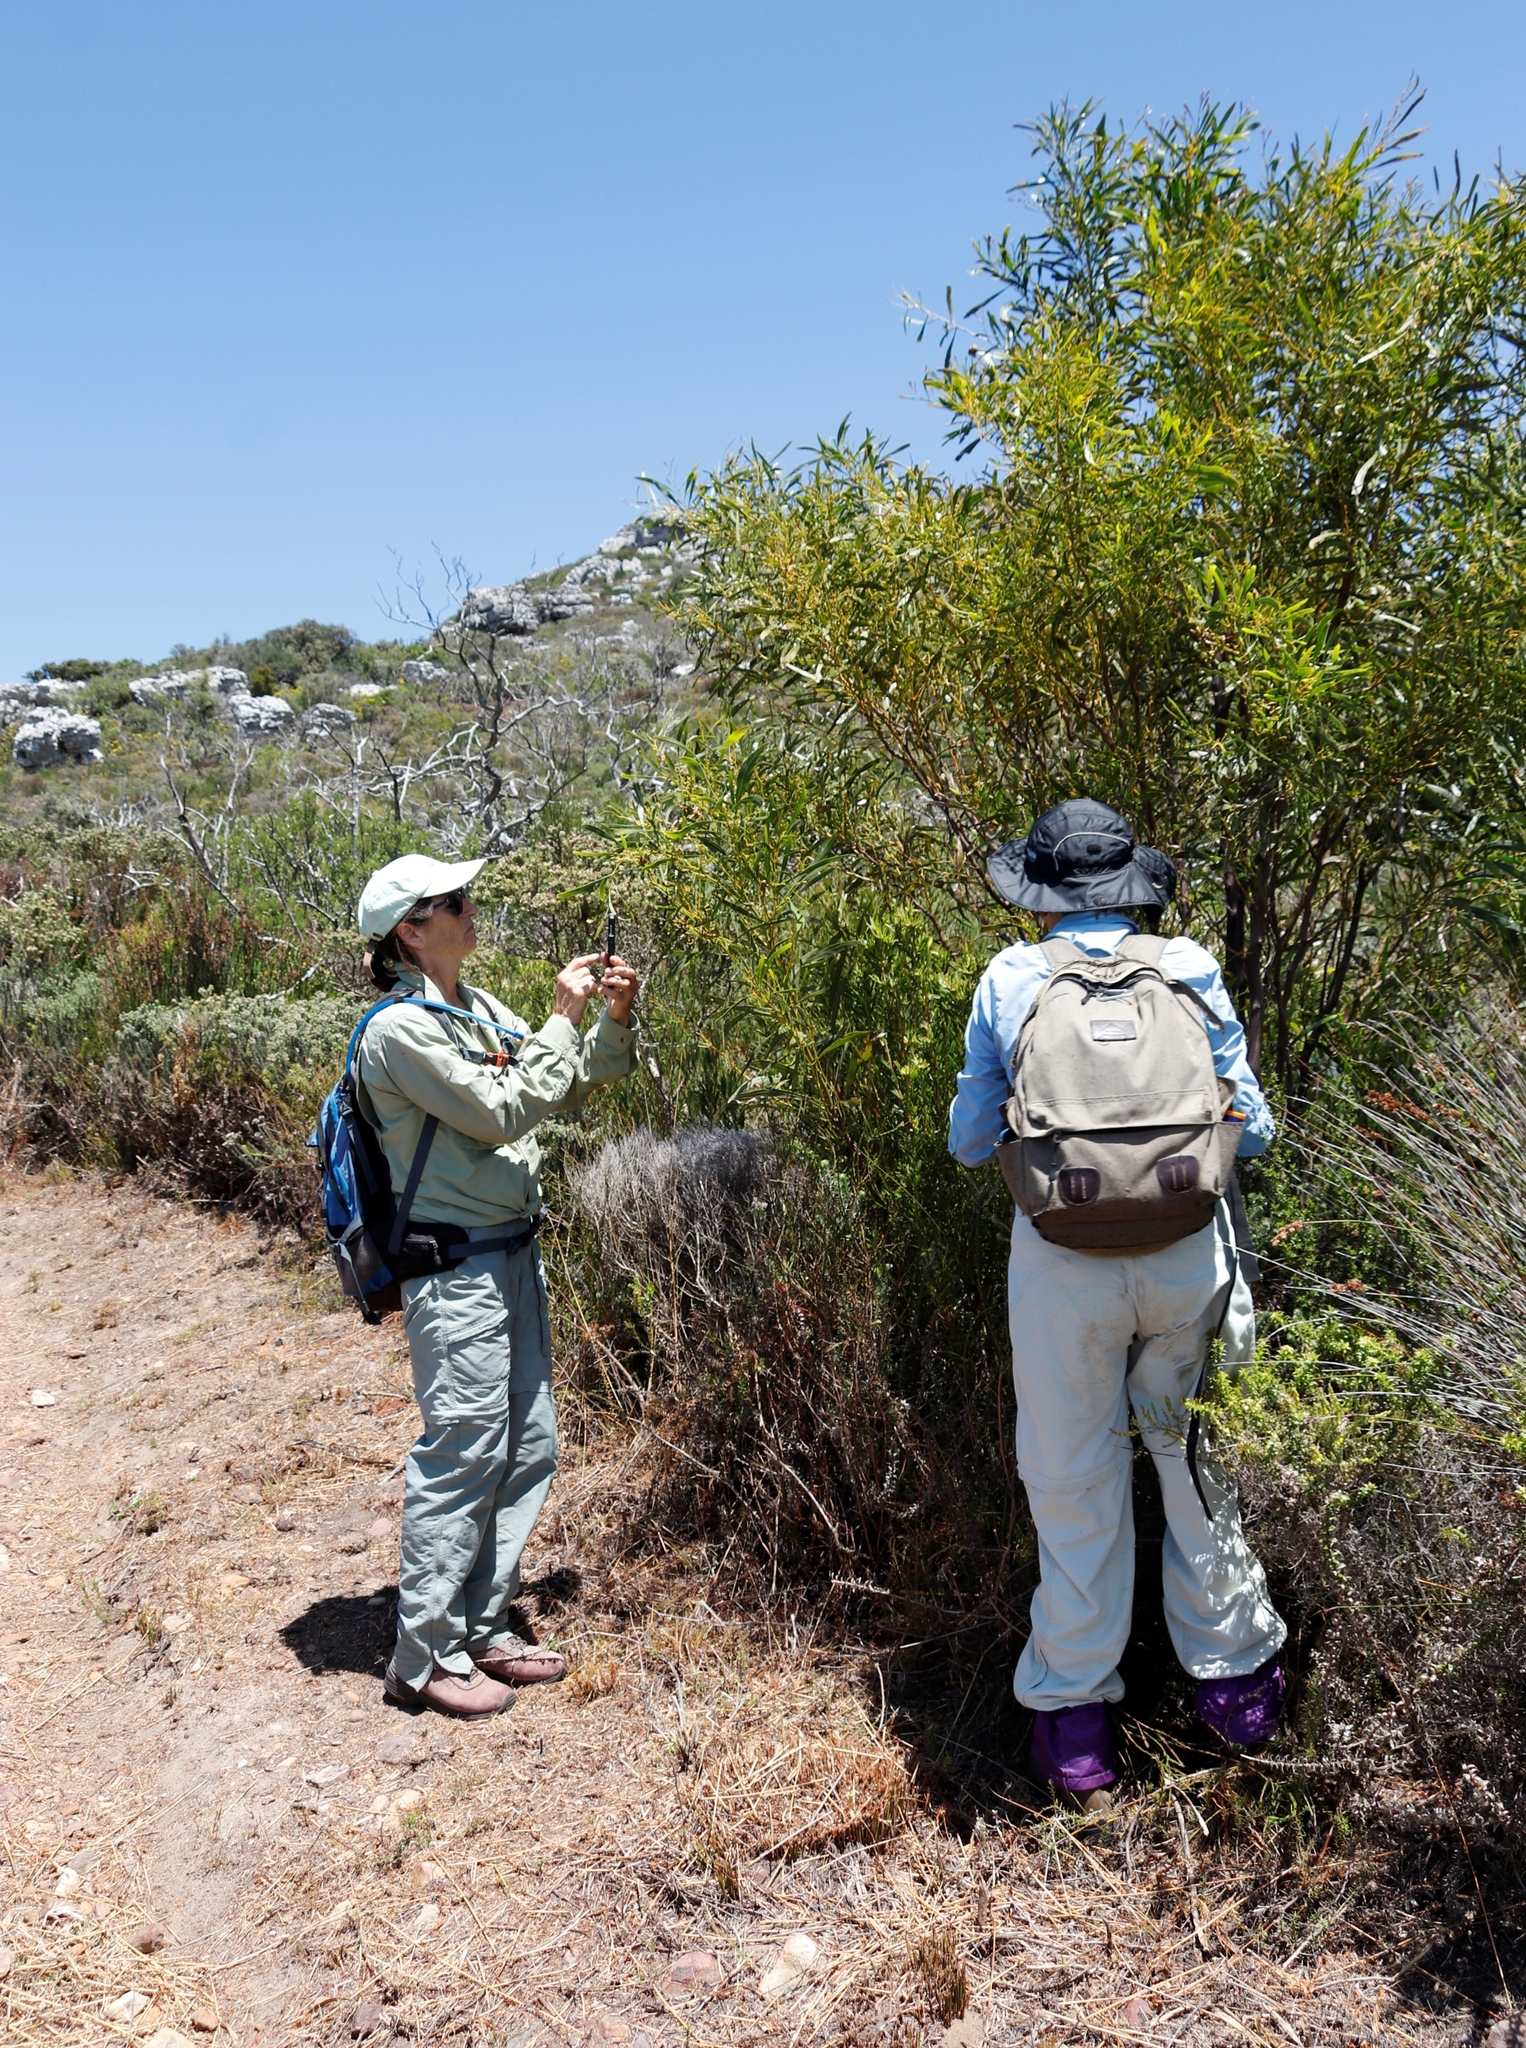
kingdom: Plantae
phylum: Tracheophyta
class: Magnoliopsida
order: Fabales
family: Fabaceae
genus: Acacia
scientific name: Acacia saligna
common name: Orange wattle
